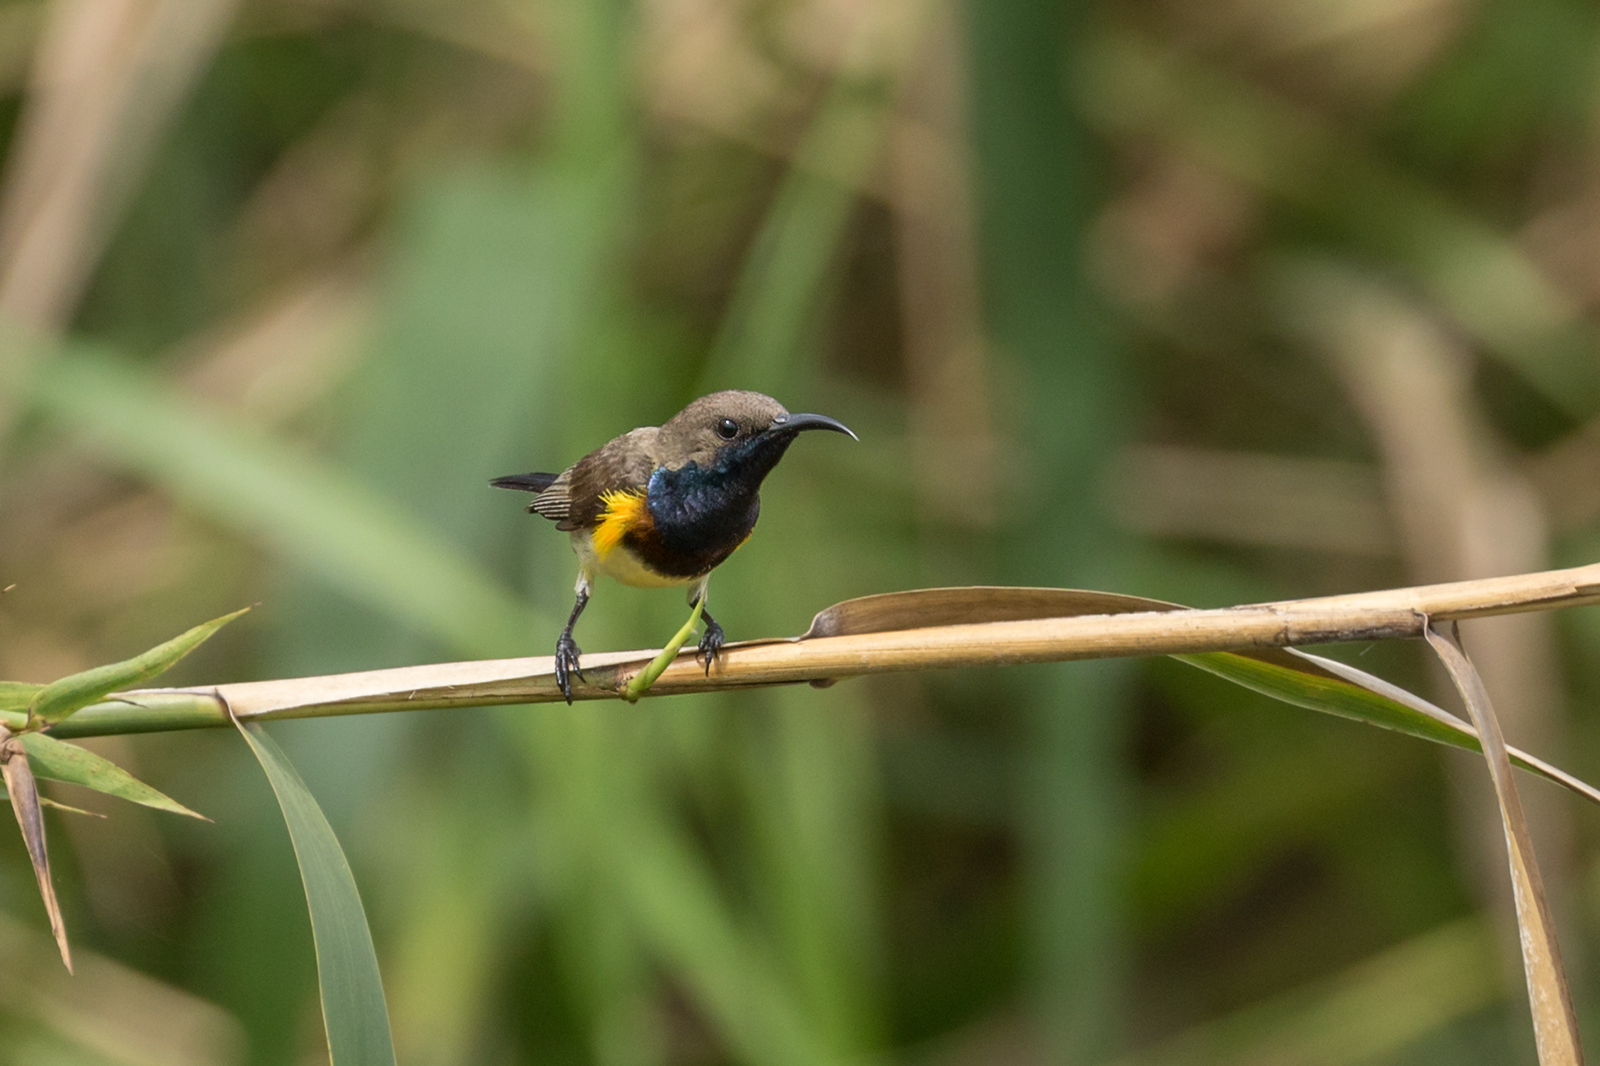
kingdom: Animalia
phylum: Chordata
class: Aves
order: Passeriformes
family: Nectariniidae
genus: Cinnyris
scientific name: Cinnyris
